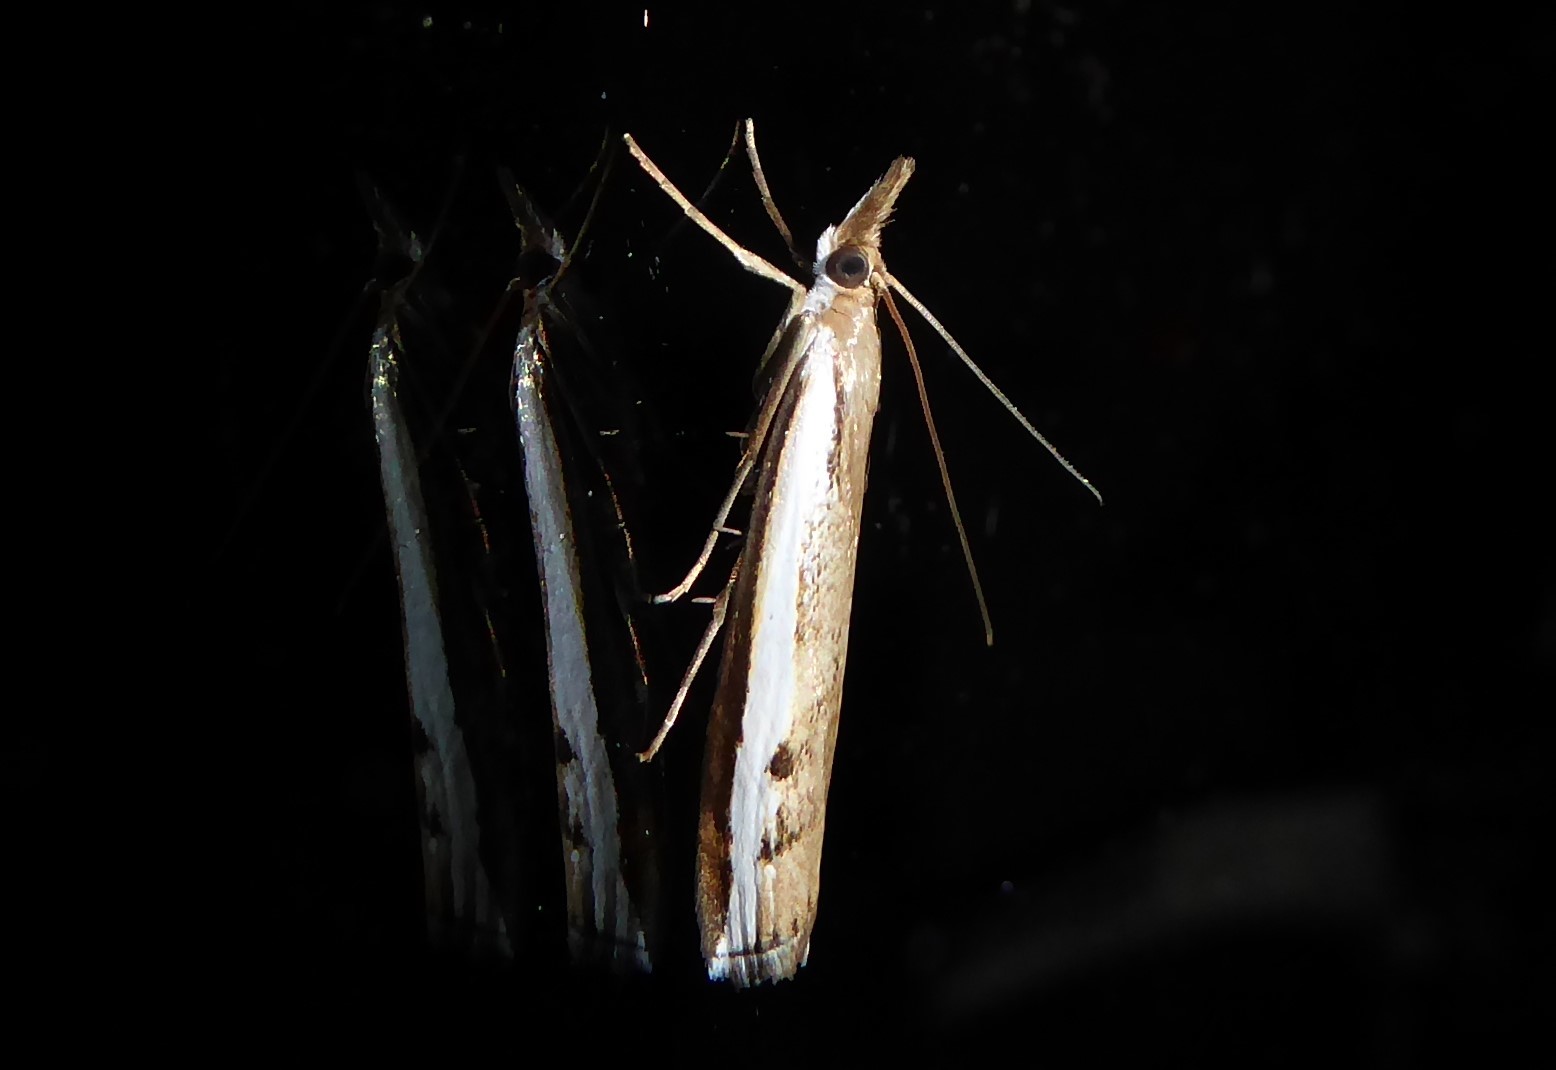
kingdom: Animalia
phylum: Arthropoda
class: Insecta
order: Lepidoptera
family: Crambidae
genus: Orocrambus
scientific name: Orocrambus flexuosellus
